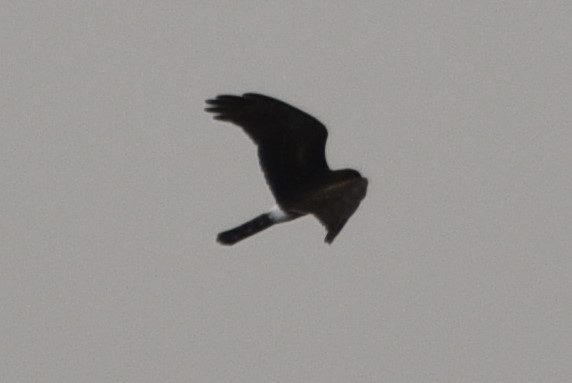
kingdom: Animalia
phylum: Chordata
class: Aves
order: Accipitriformes
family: Accipitridae
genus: Circus
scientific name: Circus cyaneus
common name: Hen harrier
